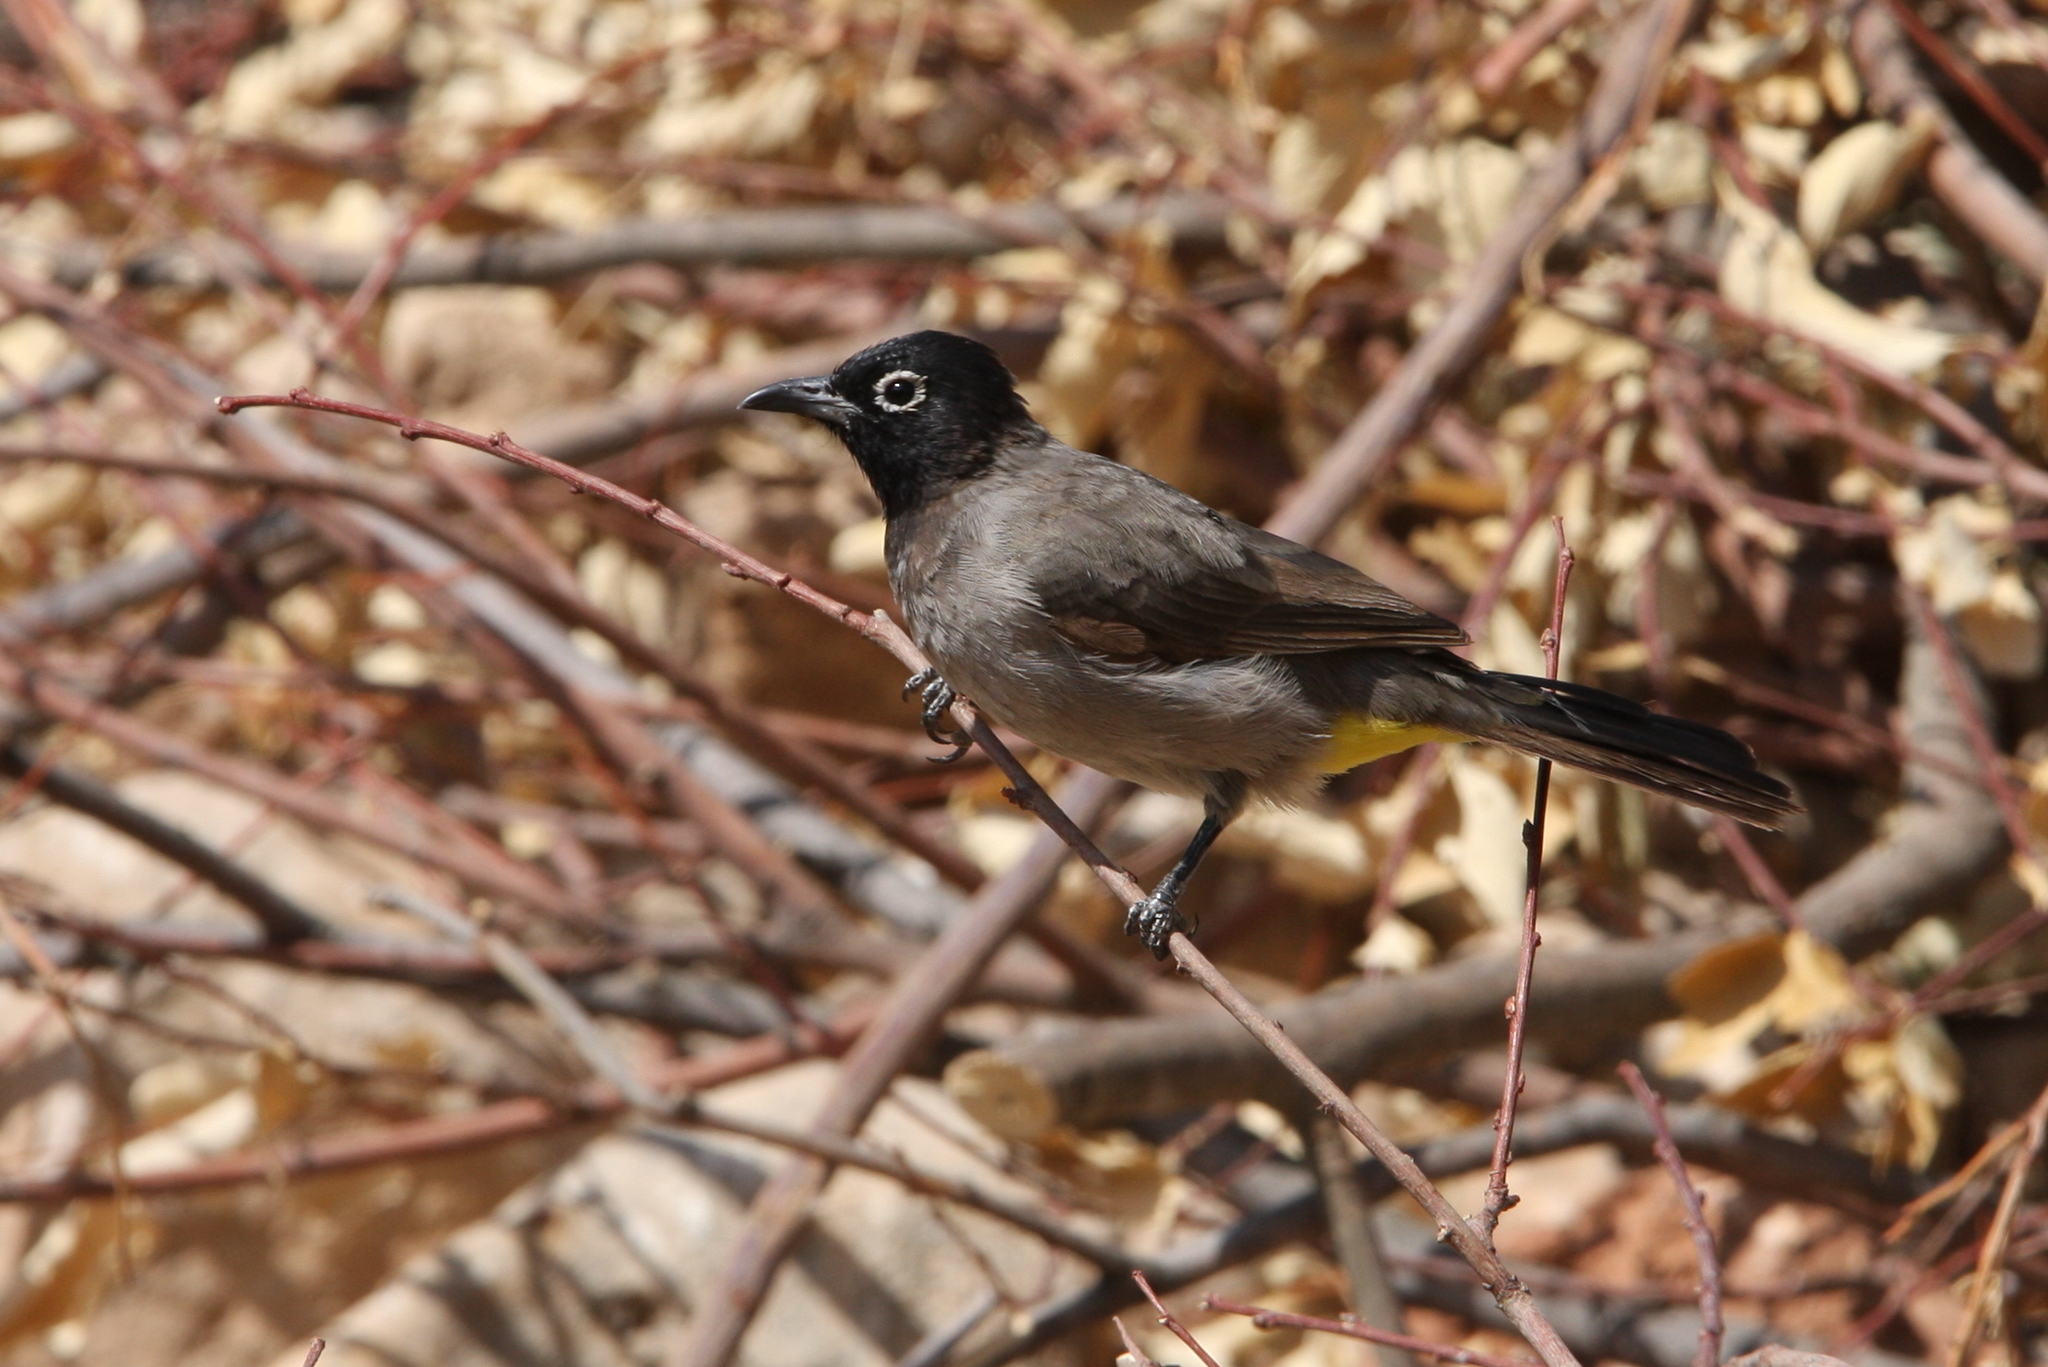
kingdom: Animalia
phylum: Chordata
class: Aves
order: Passeriformes
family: Pycnonotidae
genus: Pycnonotus
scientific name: Pycnonotus xanthopygos
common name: White-spectacled bulbul
